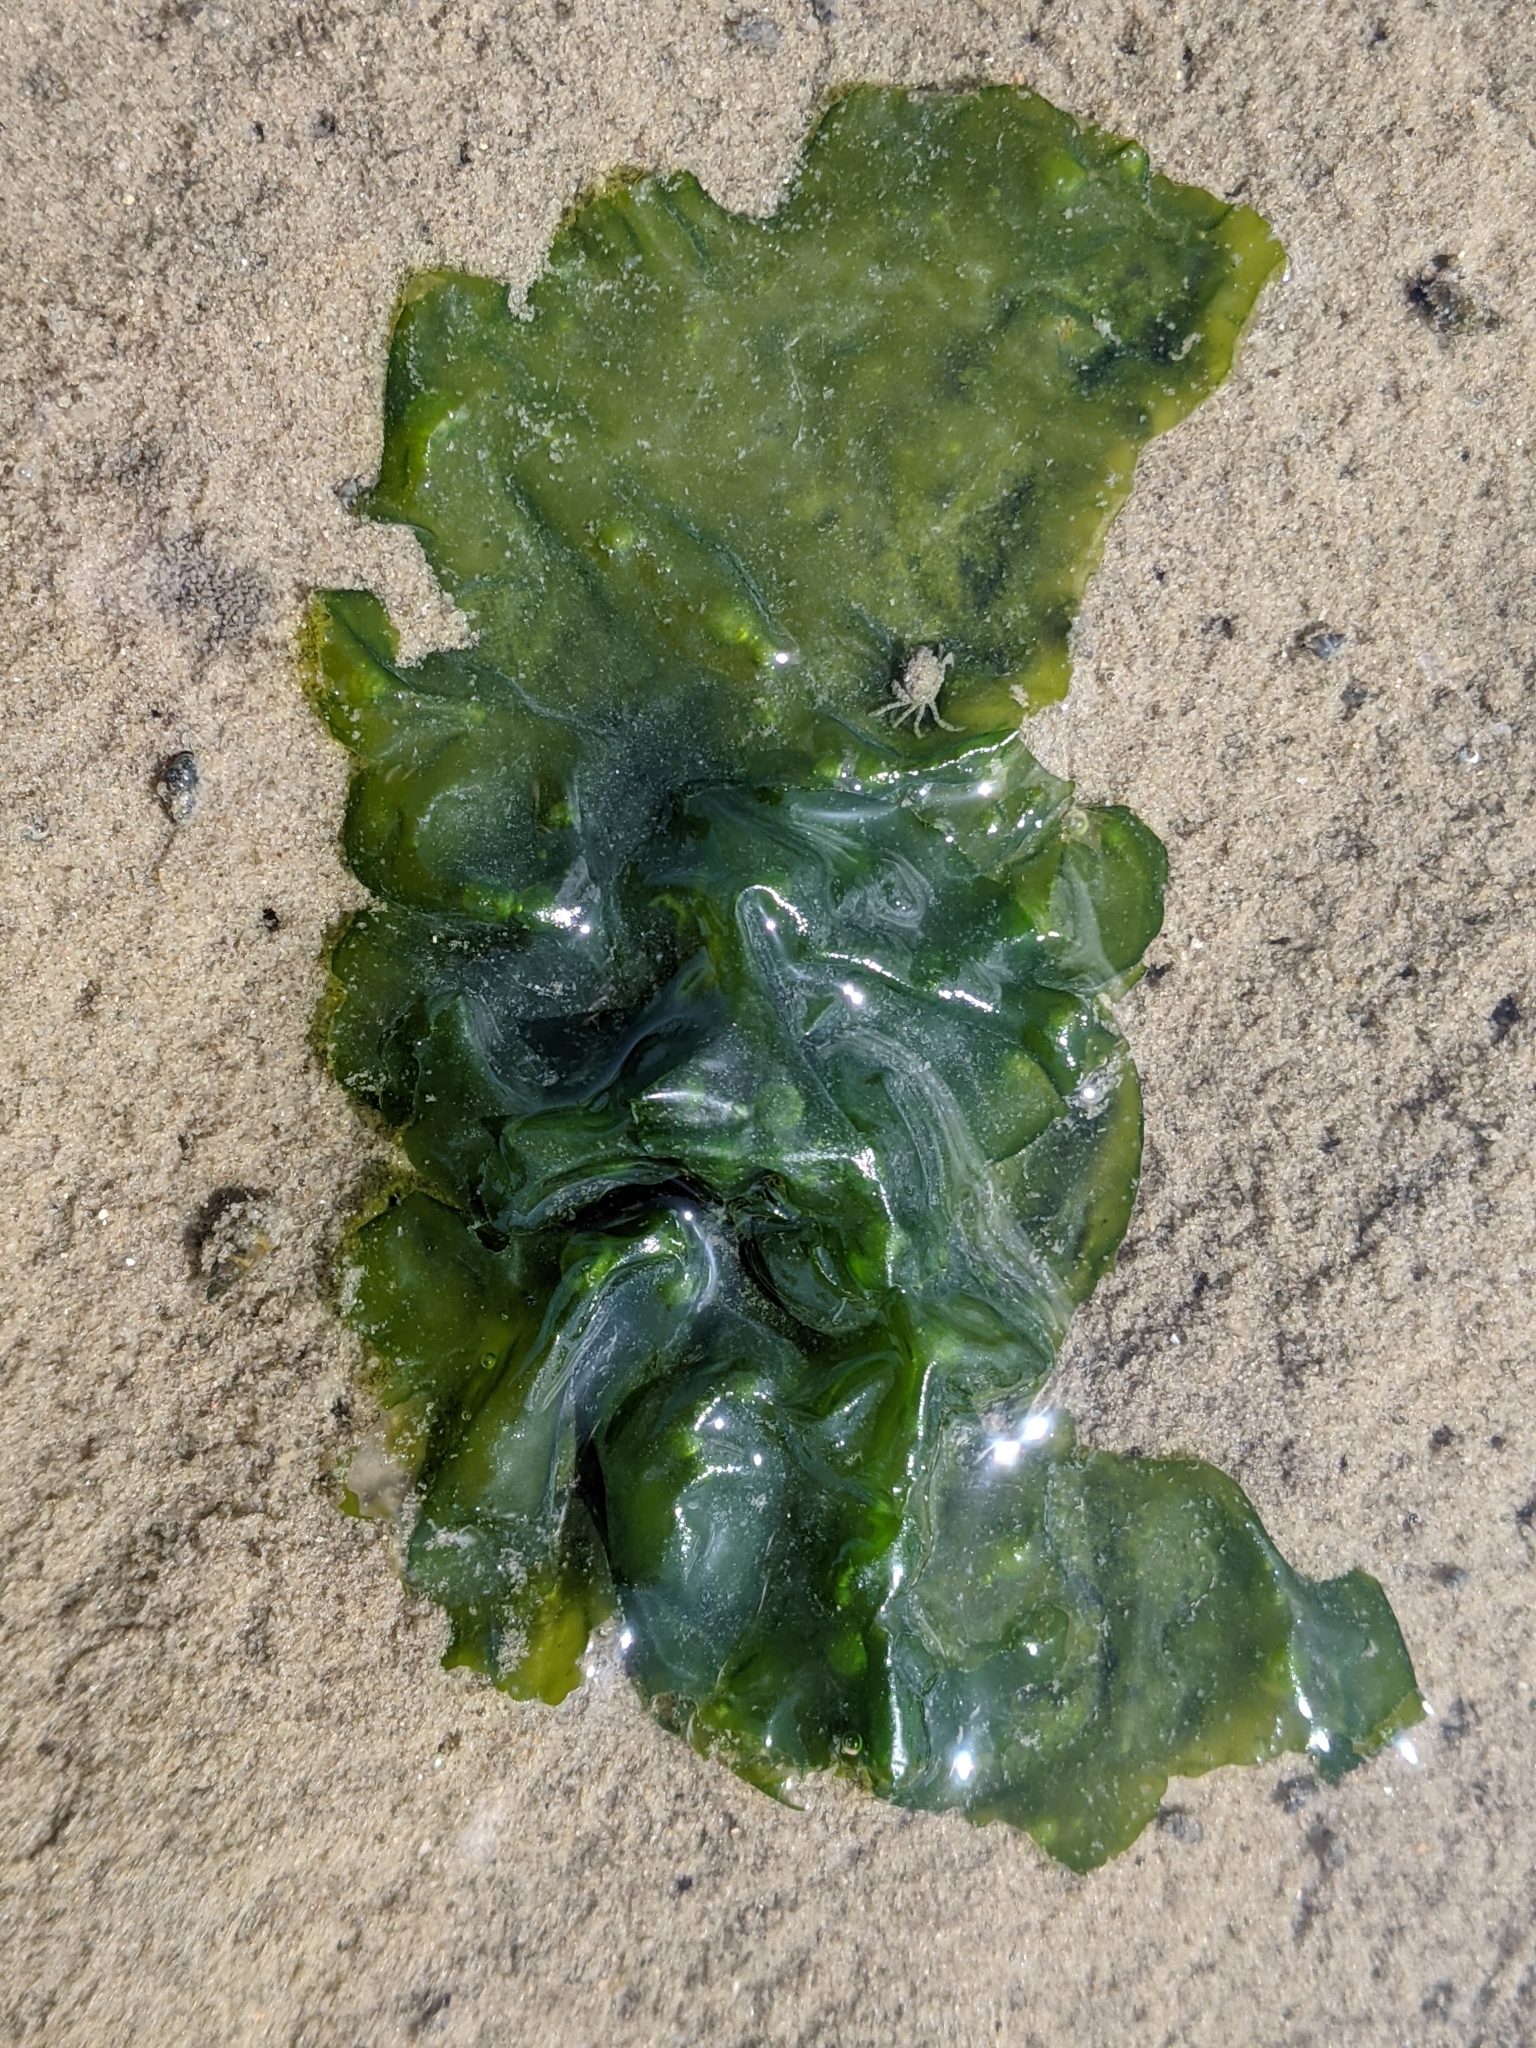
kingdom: Plantae
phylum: Chlorophyta
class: Ulvophyceae
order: Ulvales
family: Ulvaceae
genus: Ulva
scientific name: Ulva lactuca
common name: Sea lettuce
